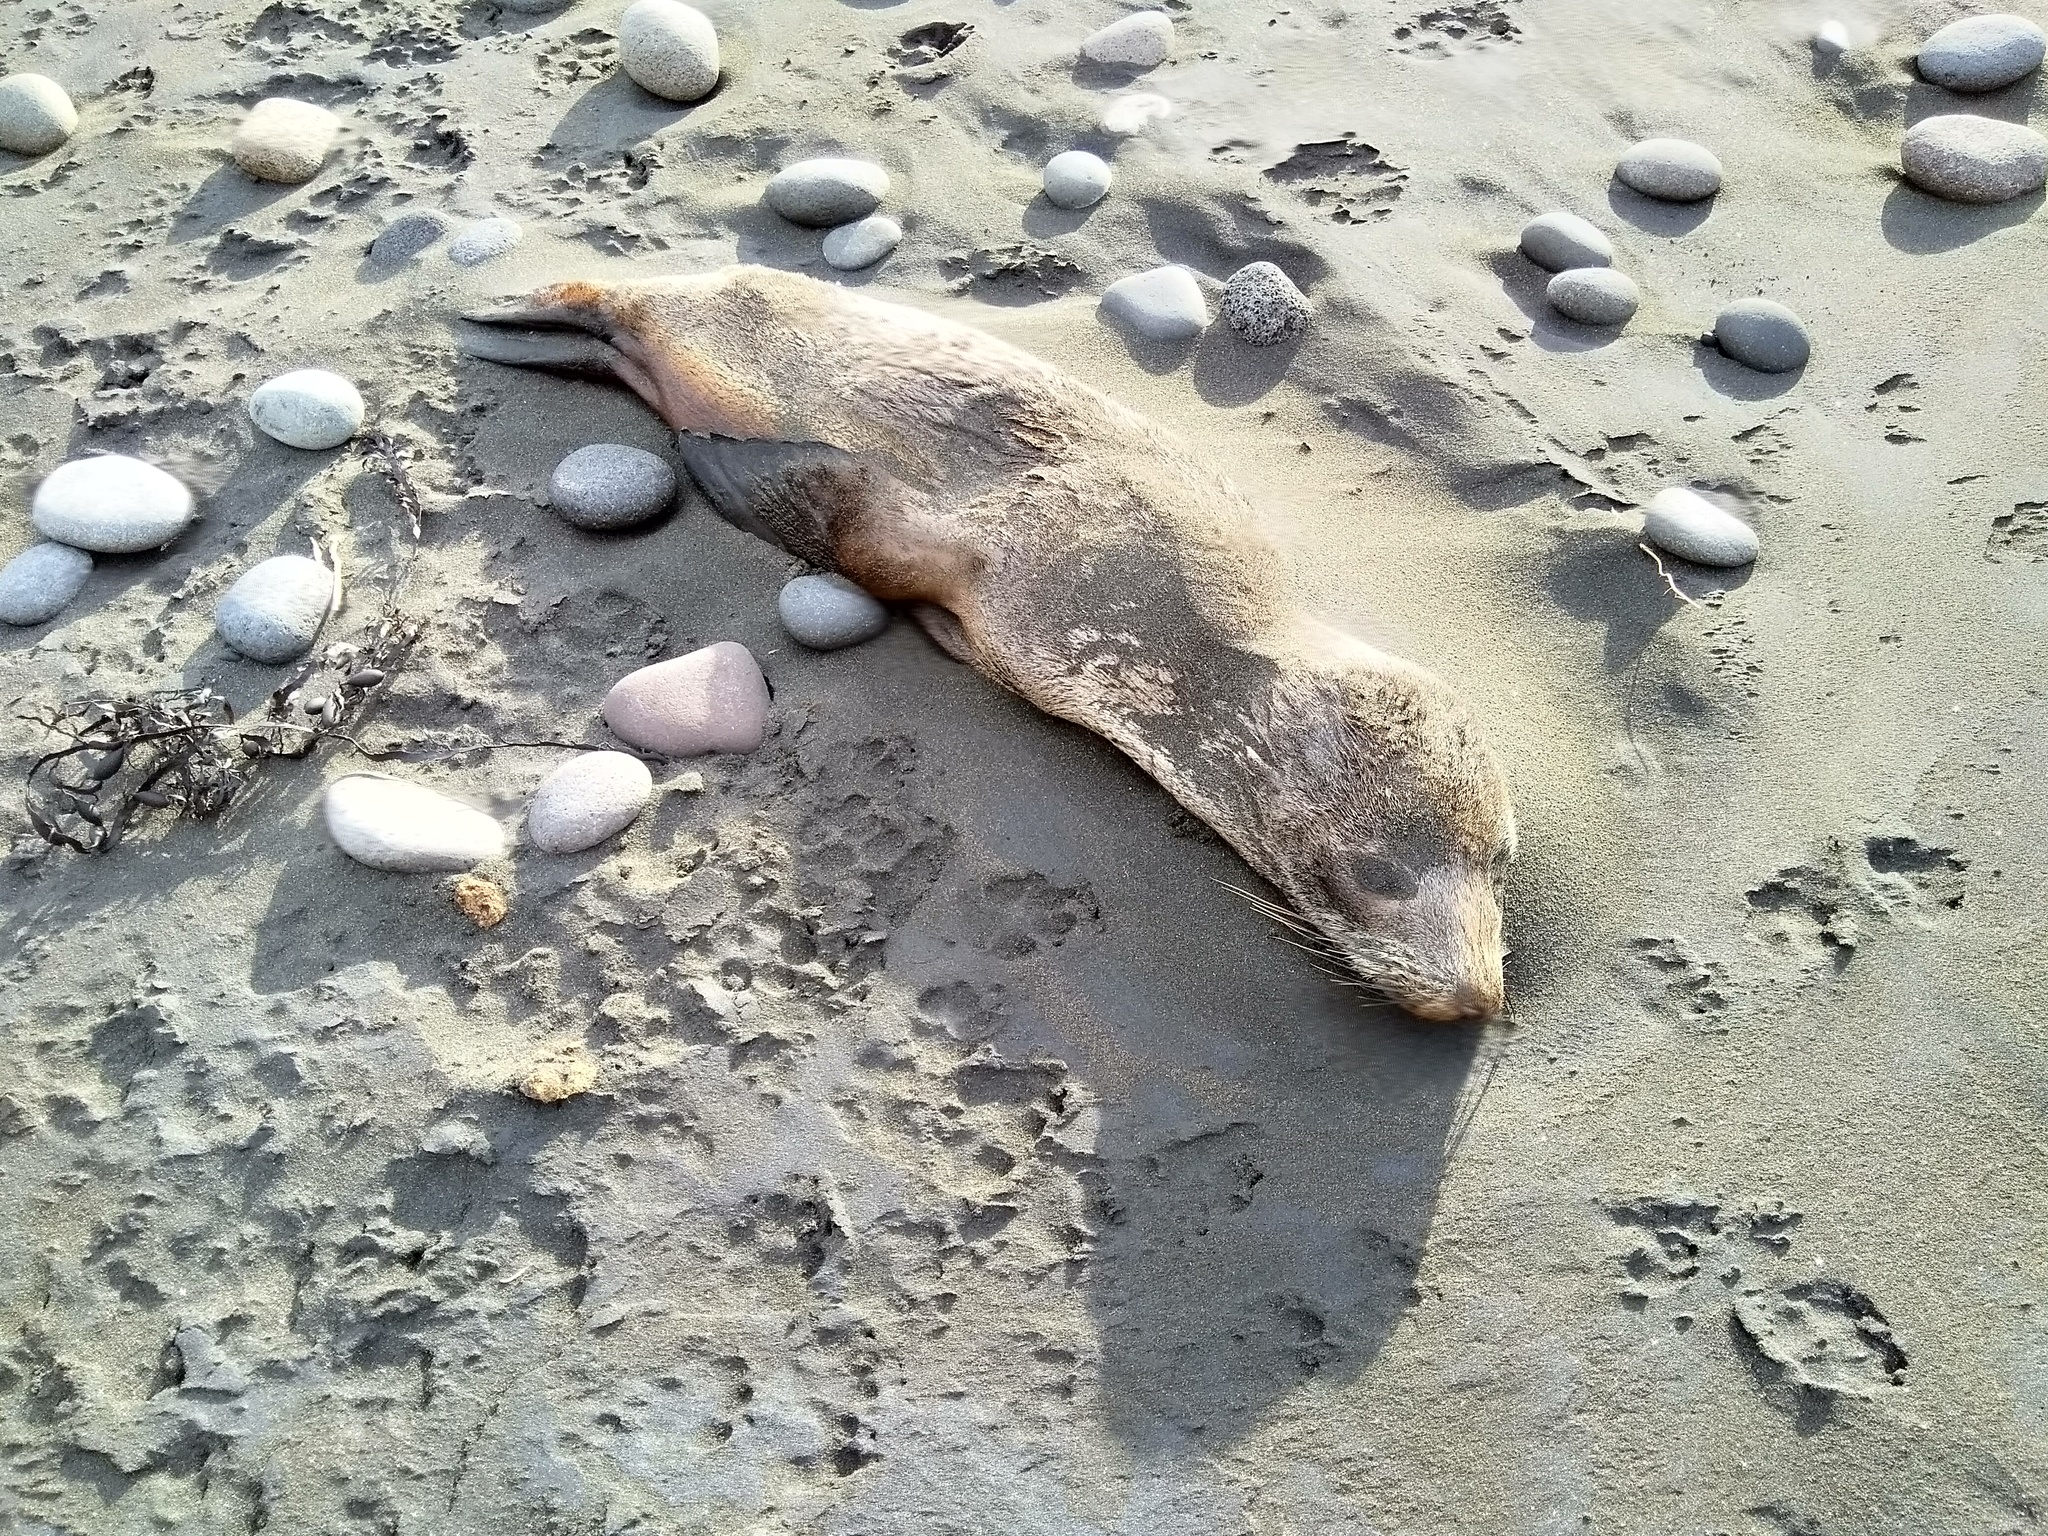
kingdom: Animalia
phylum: Chordata
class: Mammalia
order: Carnivora
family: Otariidae
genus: Arctocephalus
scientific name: Arctocephalus forsteri
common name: New zealand fur seal
